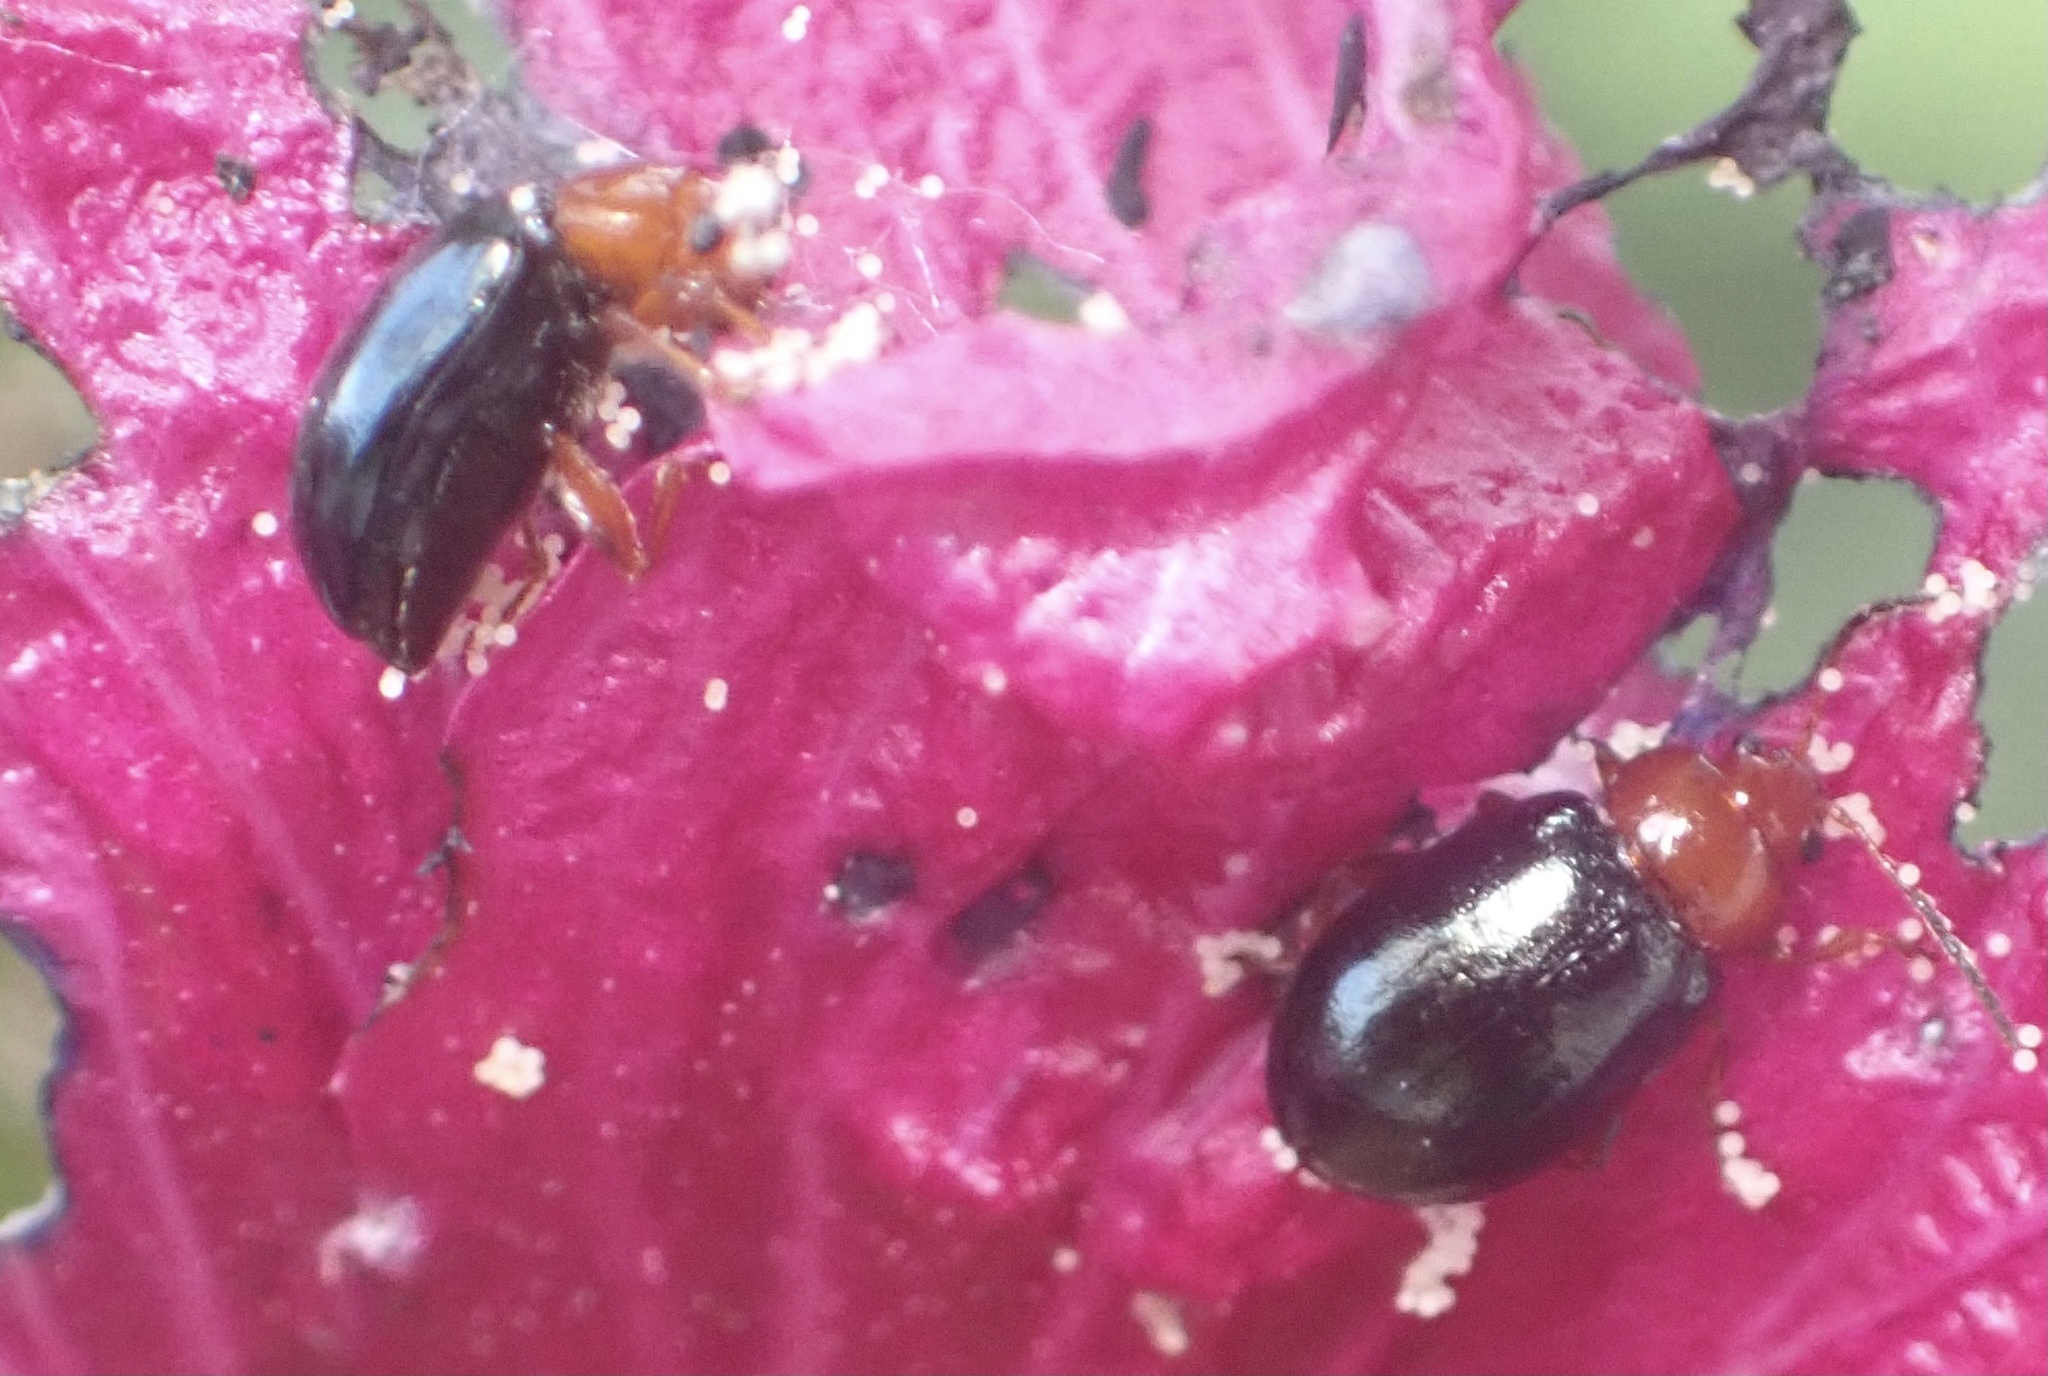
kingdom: Animalia
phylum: Arthropoda
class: Insecta
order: Coleoptera
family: Chrysomelidae
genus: Podagrica
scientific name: Podagrica fuscicornis
